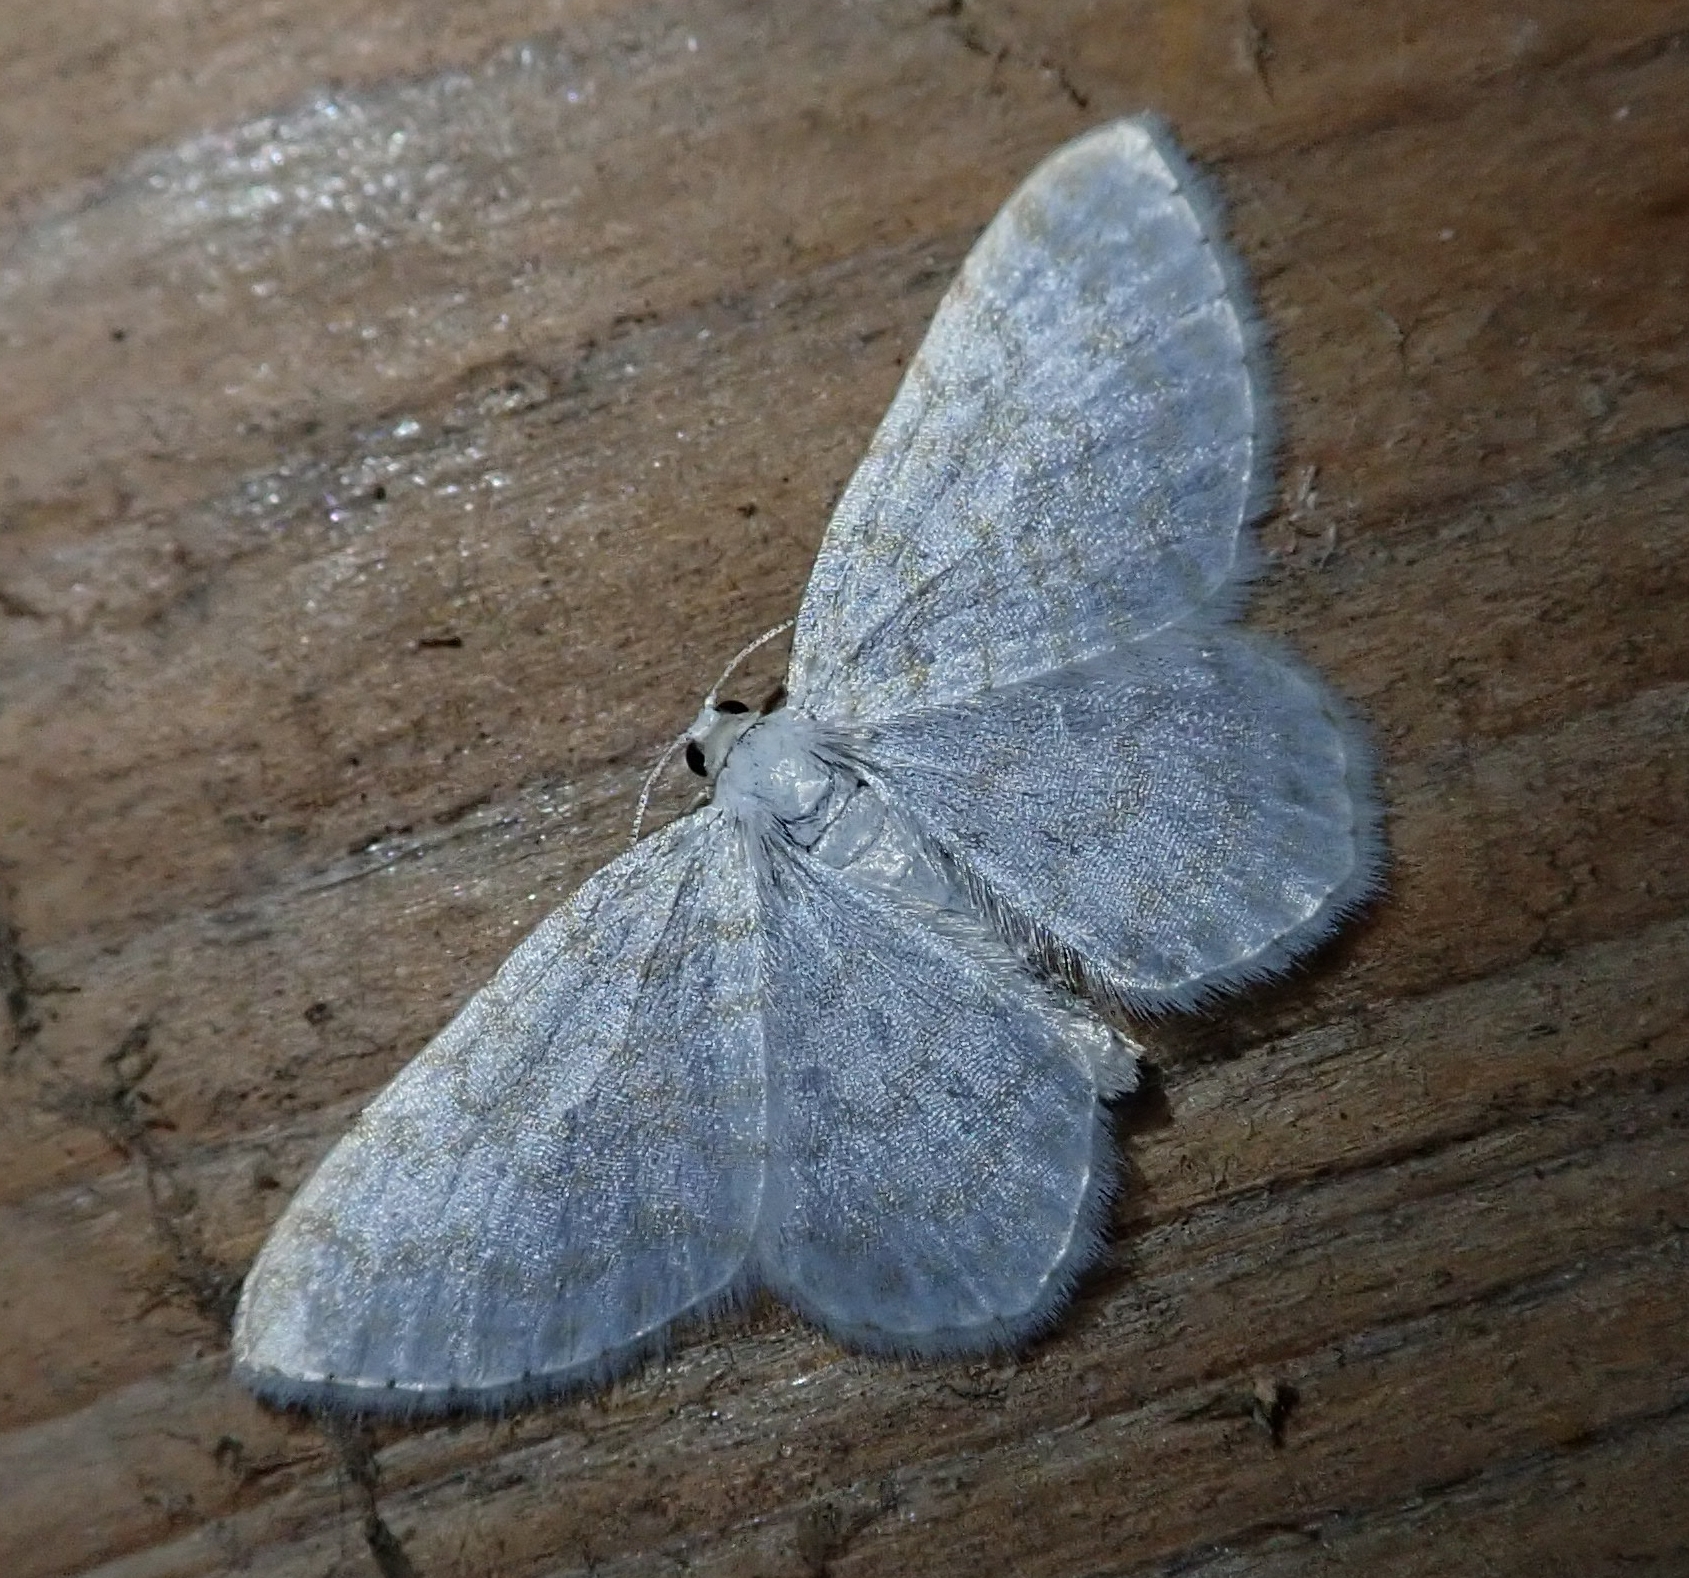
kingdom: Animalia
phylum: Arthropoda
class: Insecta
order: Lepidoptera
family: Geometridae
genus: Asthena
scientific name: Asthena albulata
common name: Small white wave
